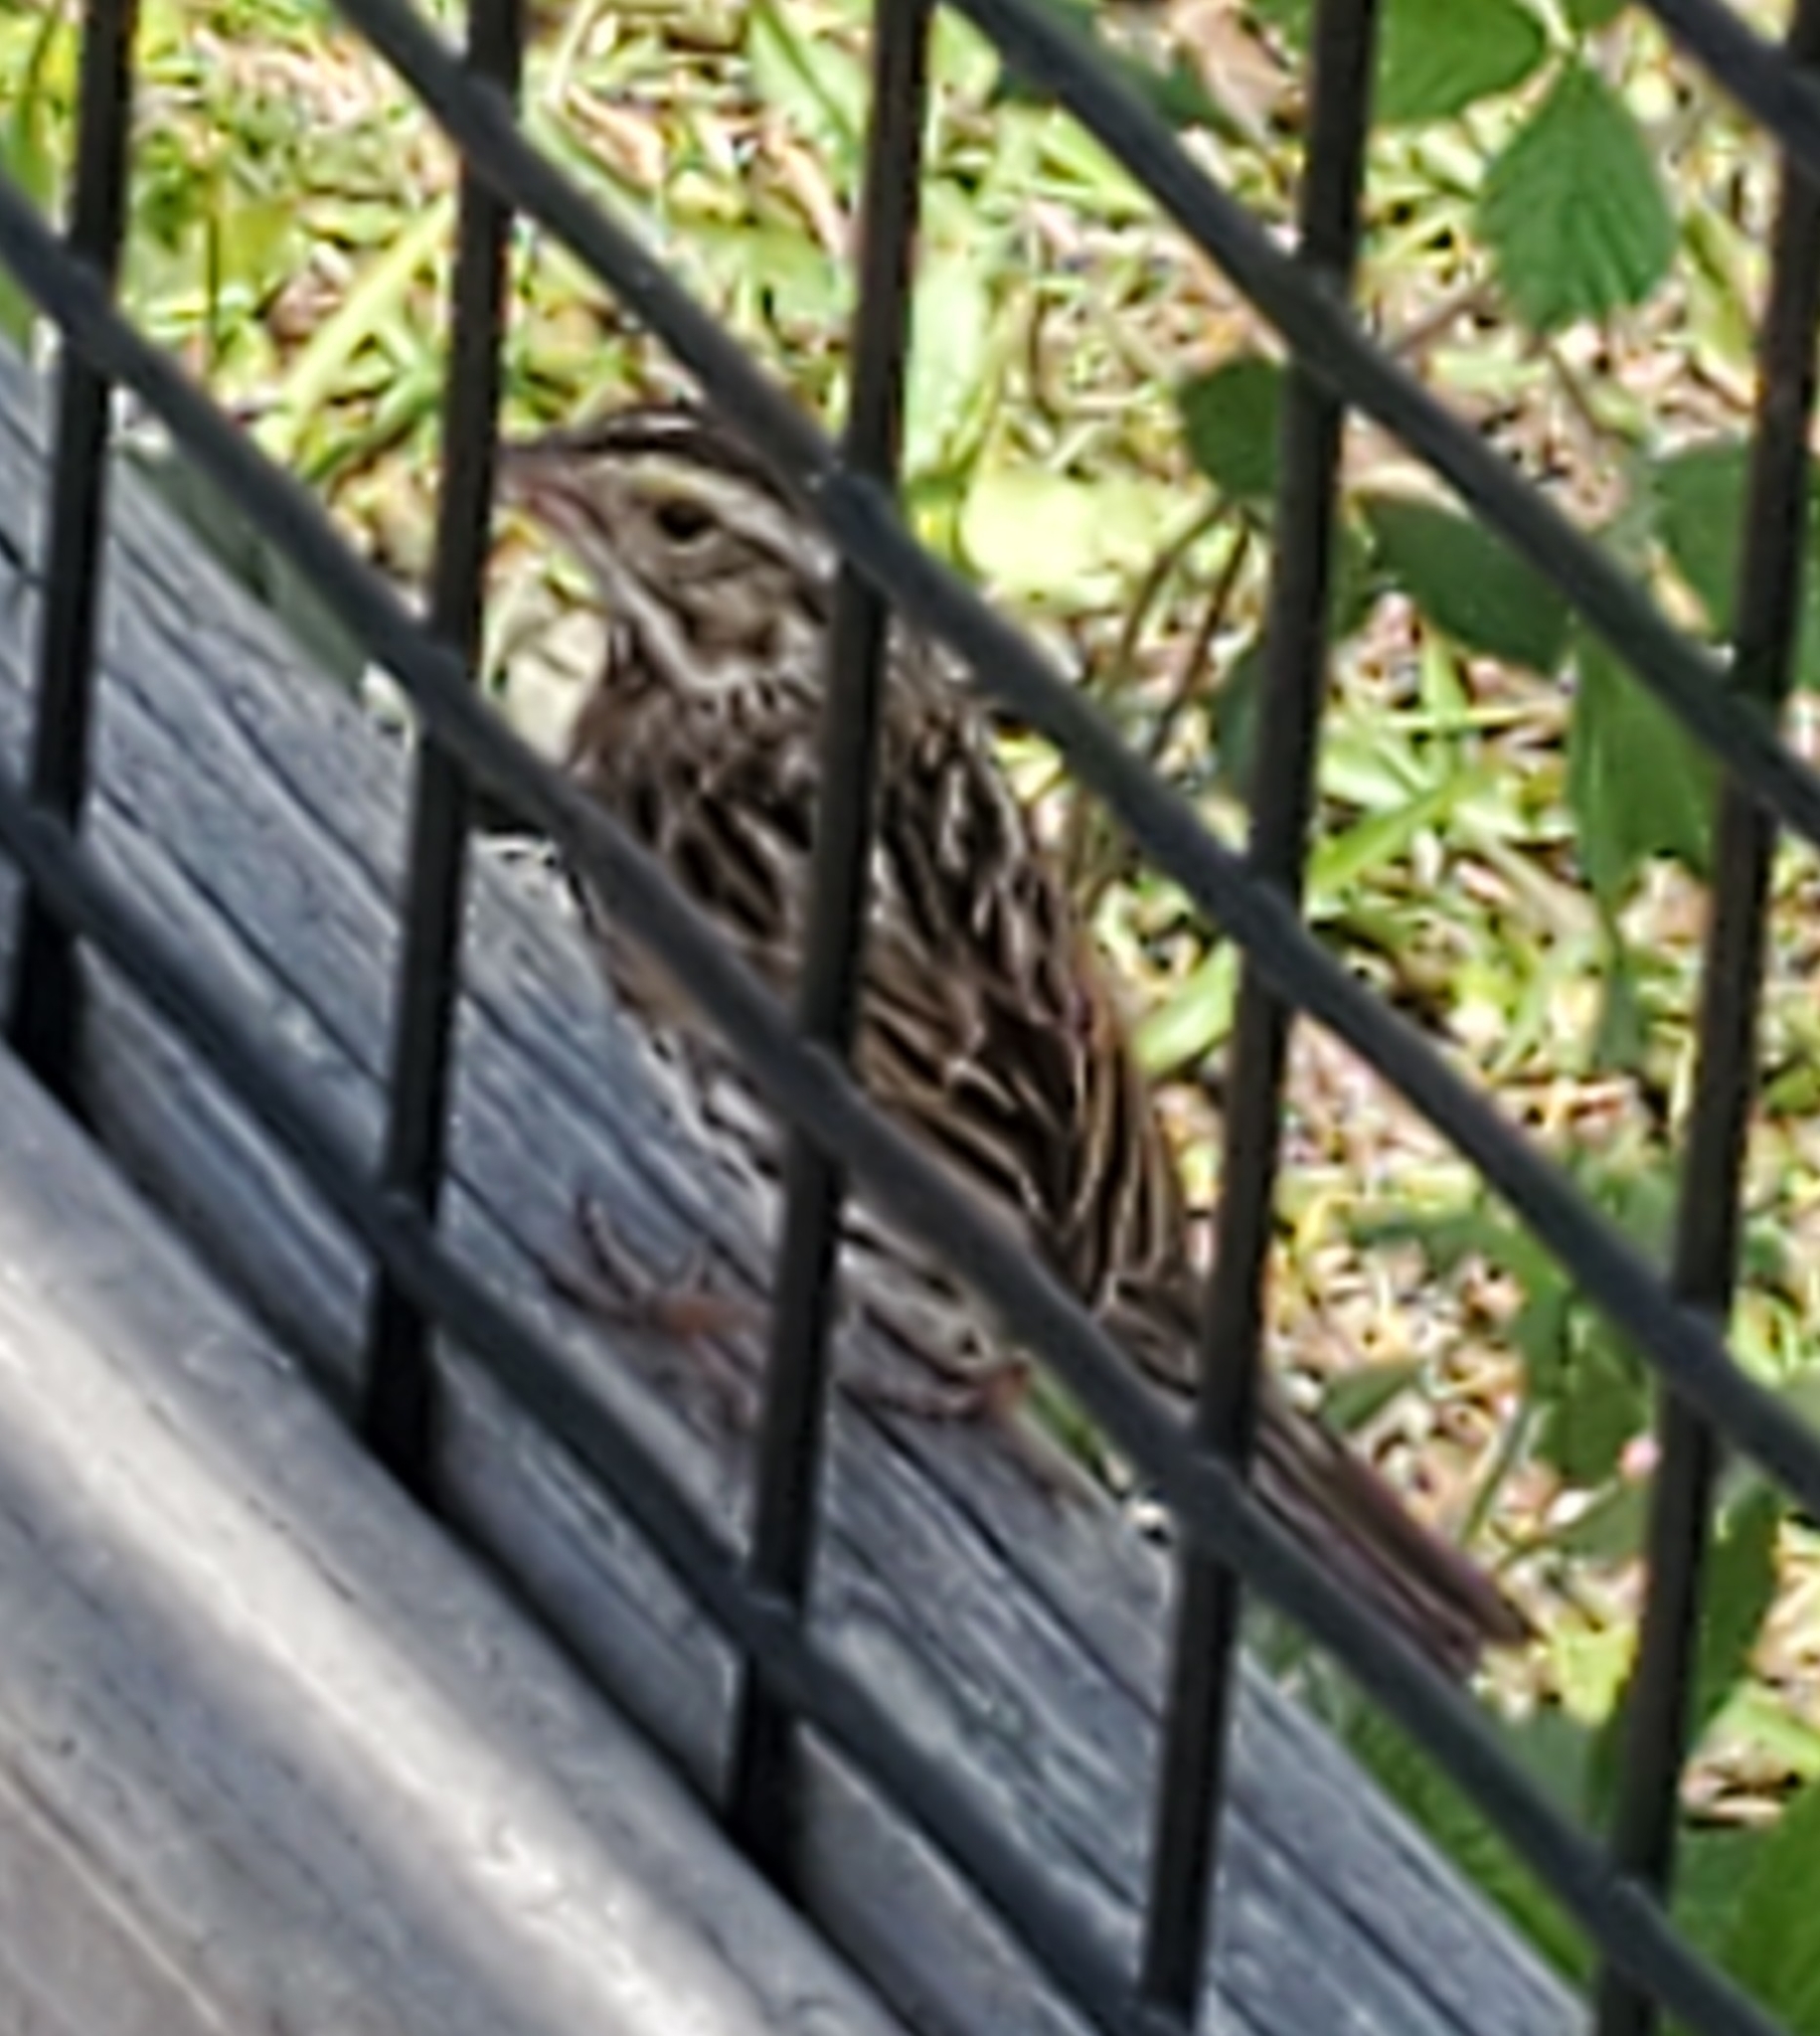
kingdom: Animalia
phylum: Chordata
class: Aves
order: Passeriformes
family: Passerellidae
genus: Passerculus
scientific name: Passerculus sandwichensis
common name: Savannah sparrow
